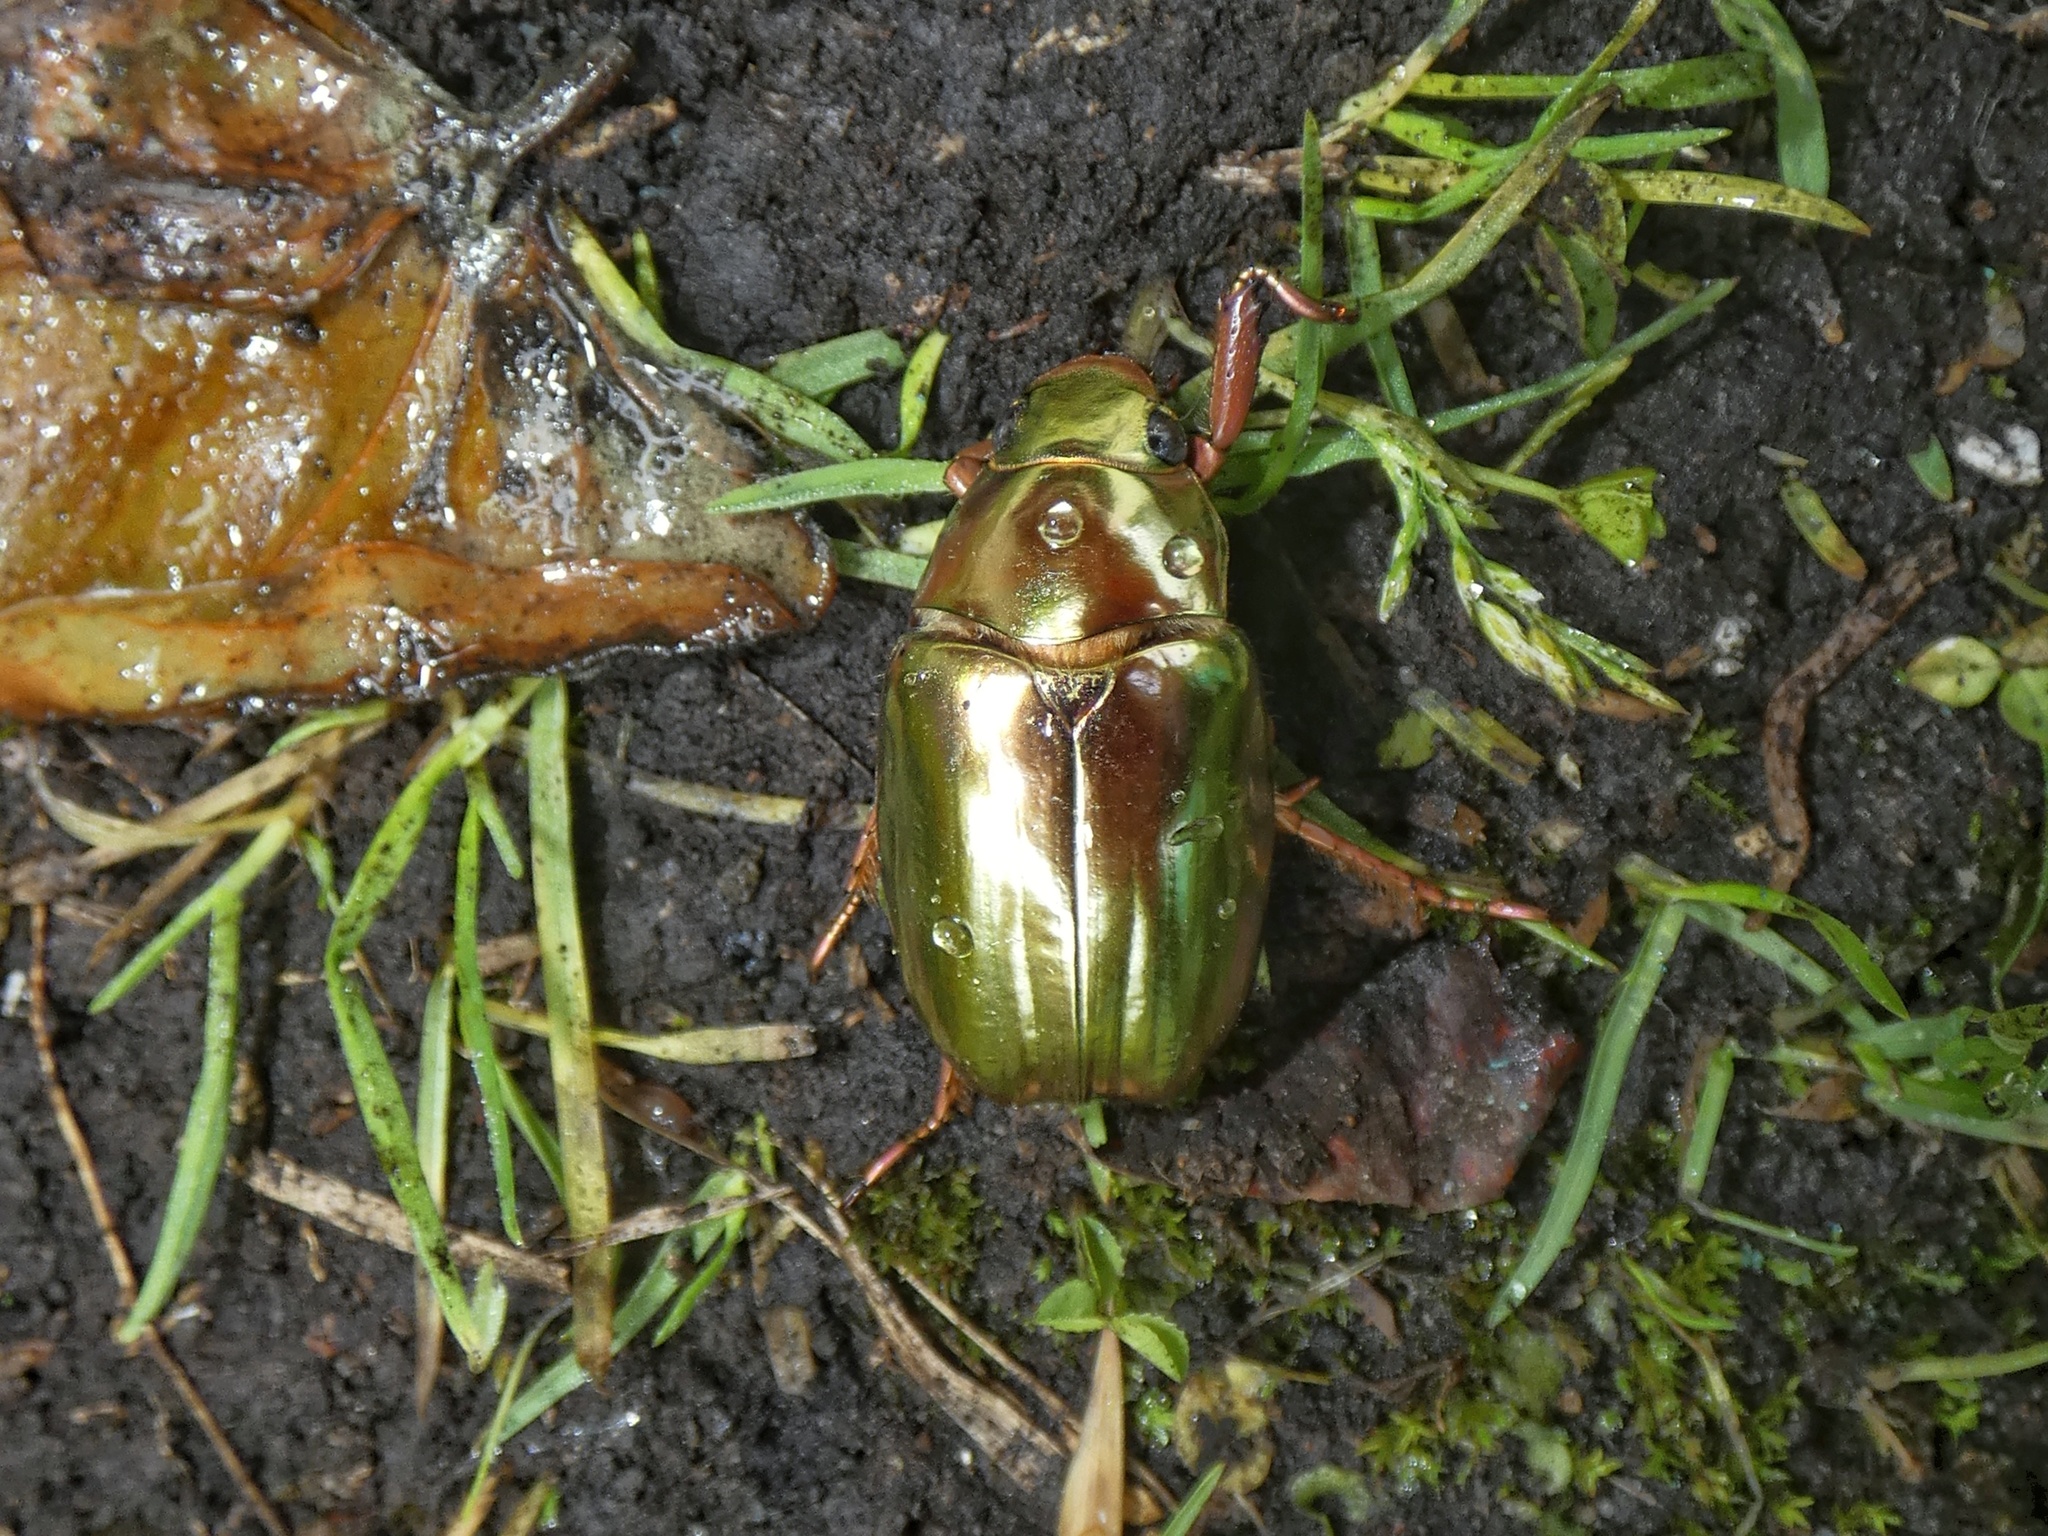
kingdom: Animalia
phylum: Arthropoda
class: Insecta
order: Coleoptera
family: Scarabaeidae
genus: Chrysina
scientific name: Chrysina batesi
